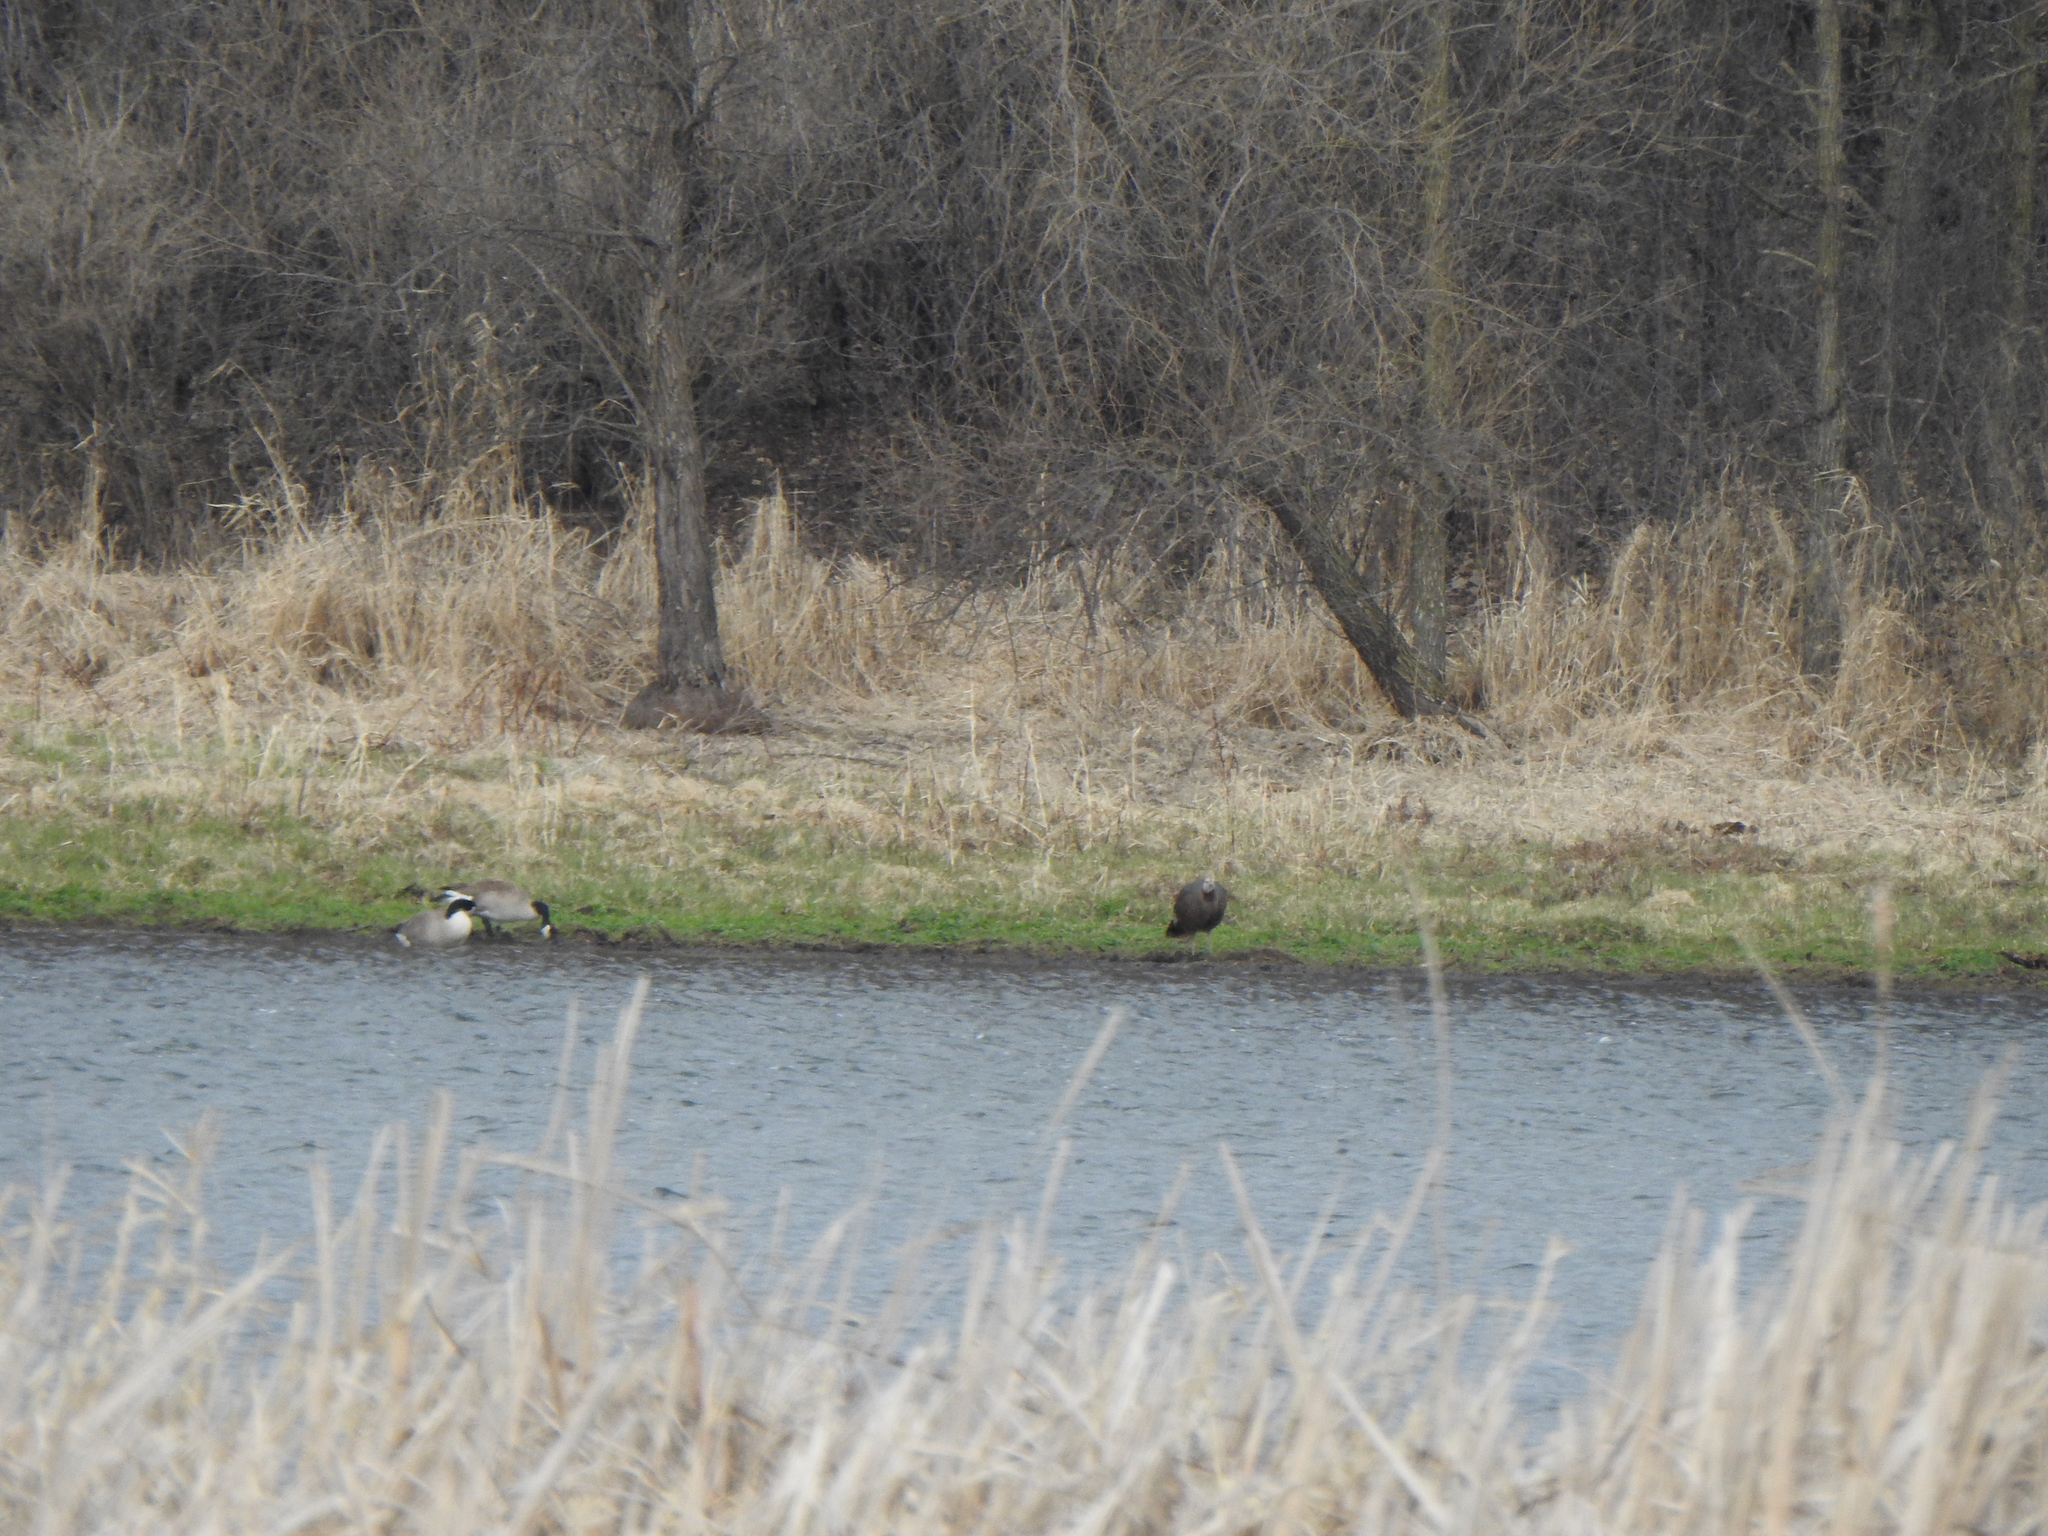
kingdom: Animalia
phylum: Chordata
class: Aves
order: Galliformes
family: Phasianidae
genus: Meleagris
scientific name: Meleagris gallopavo
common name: Wild turkey
